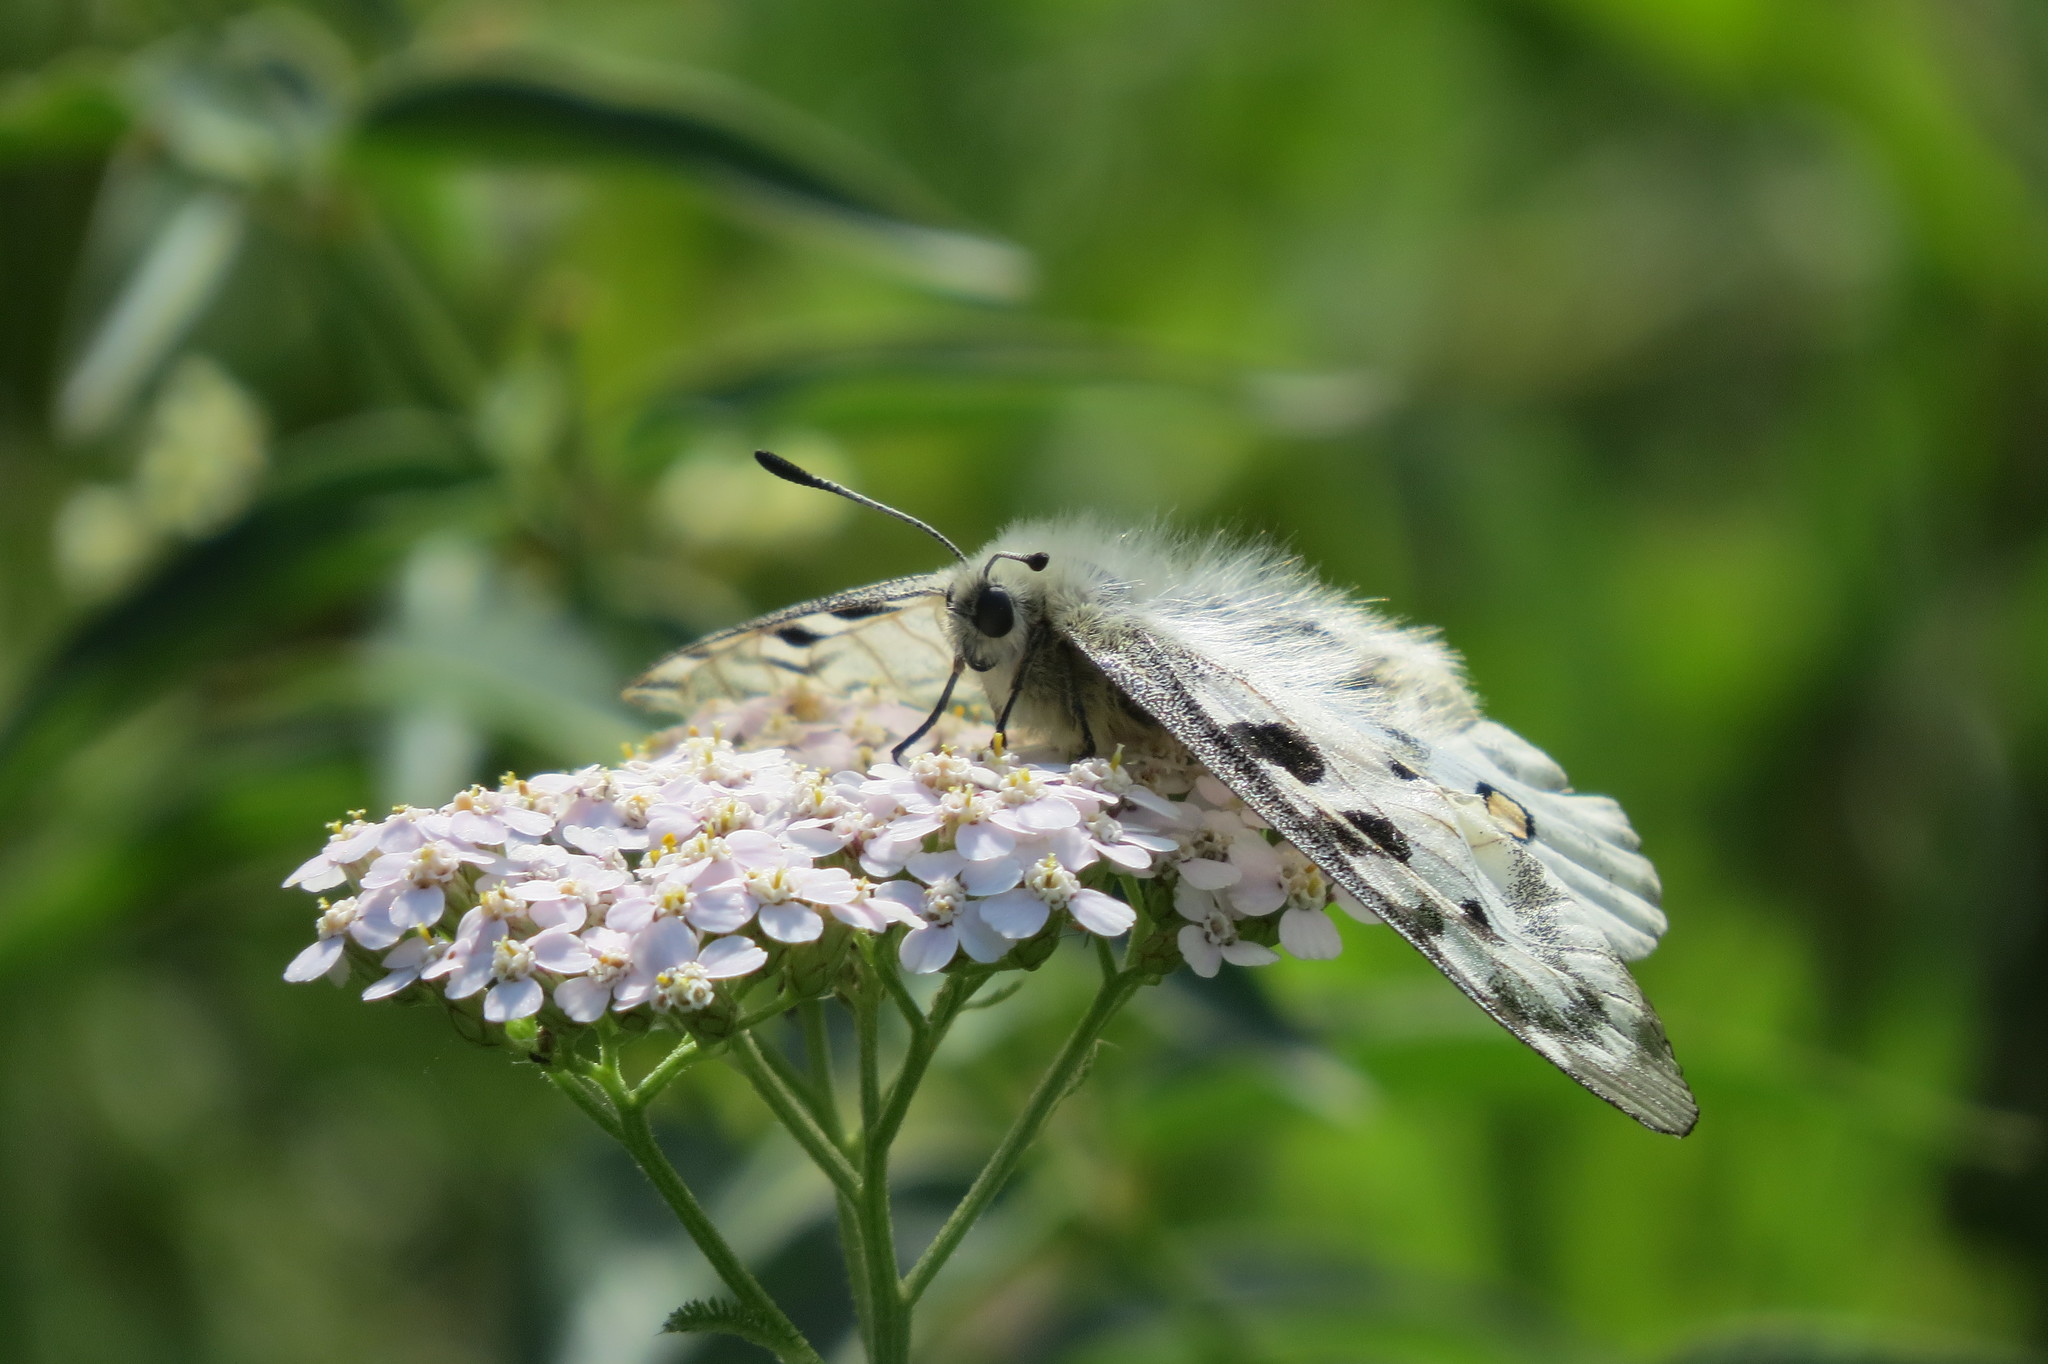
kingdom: Animalia
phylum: Arthropoda
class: Insecta
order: Lepidoptera
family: Papilionidae
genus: Parnassius
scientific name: Parnassius apollo
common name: Apollo
